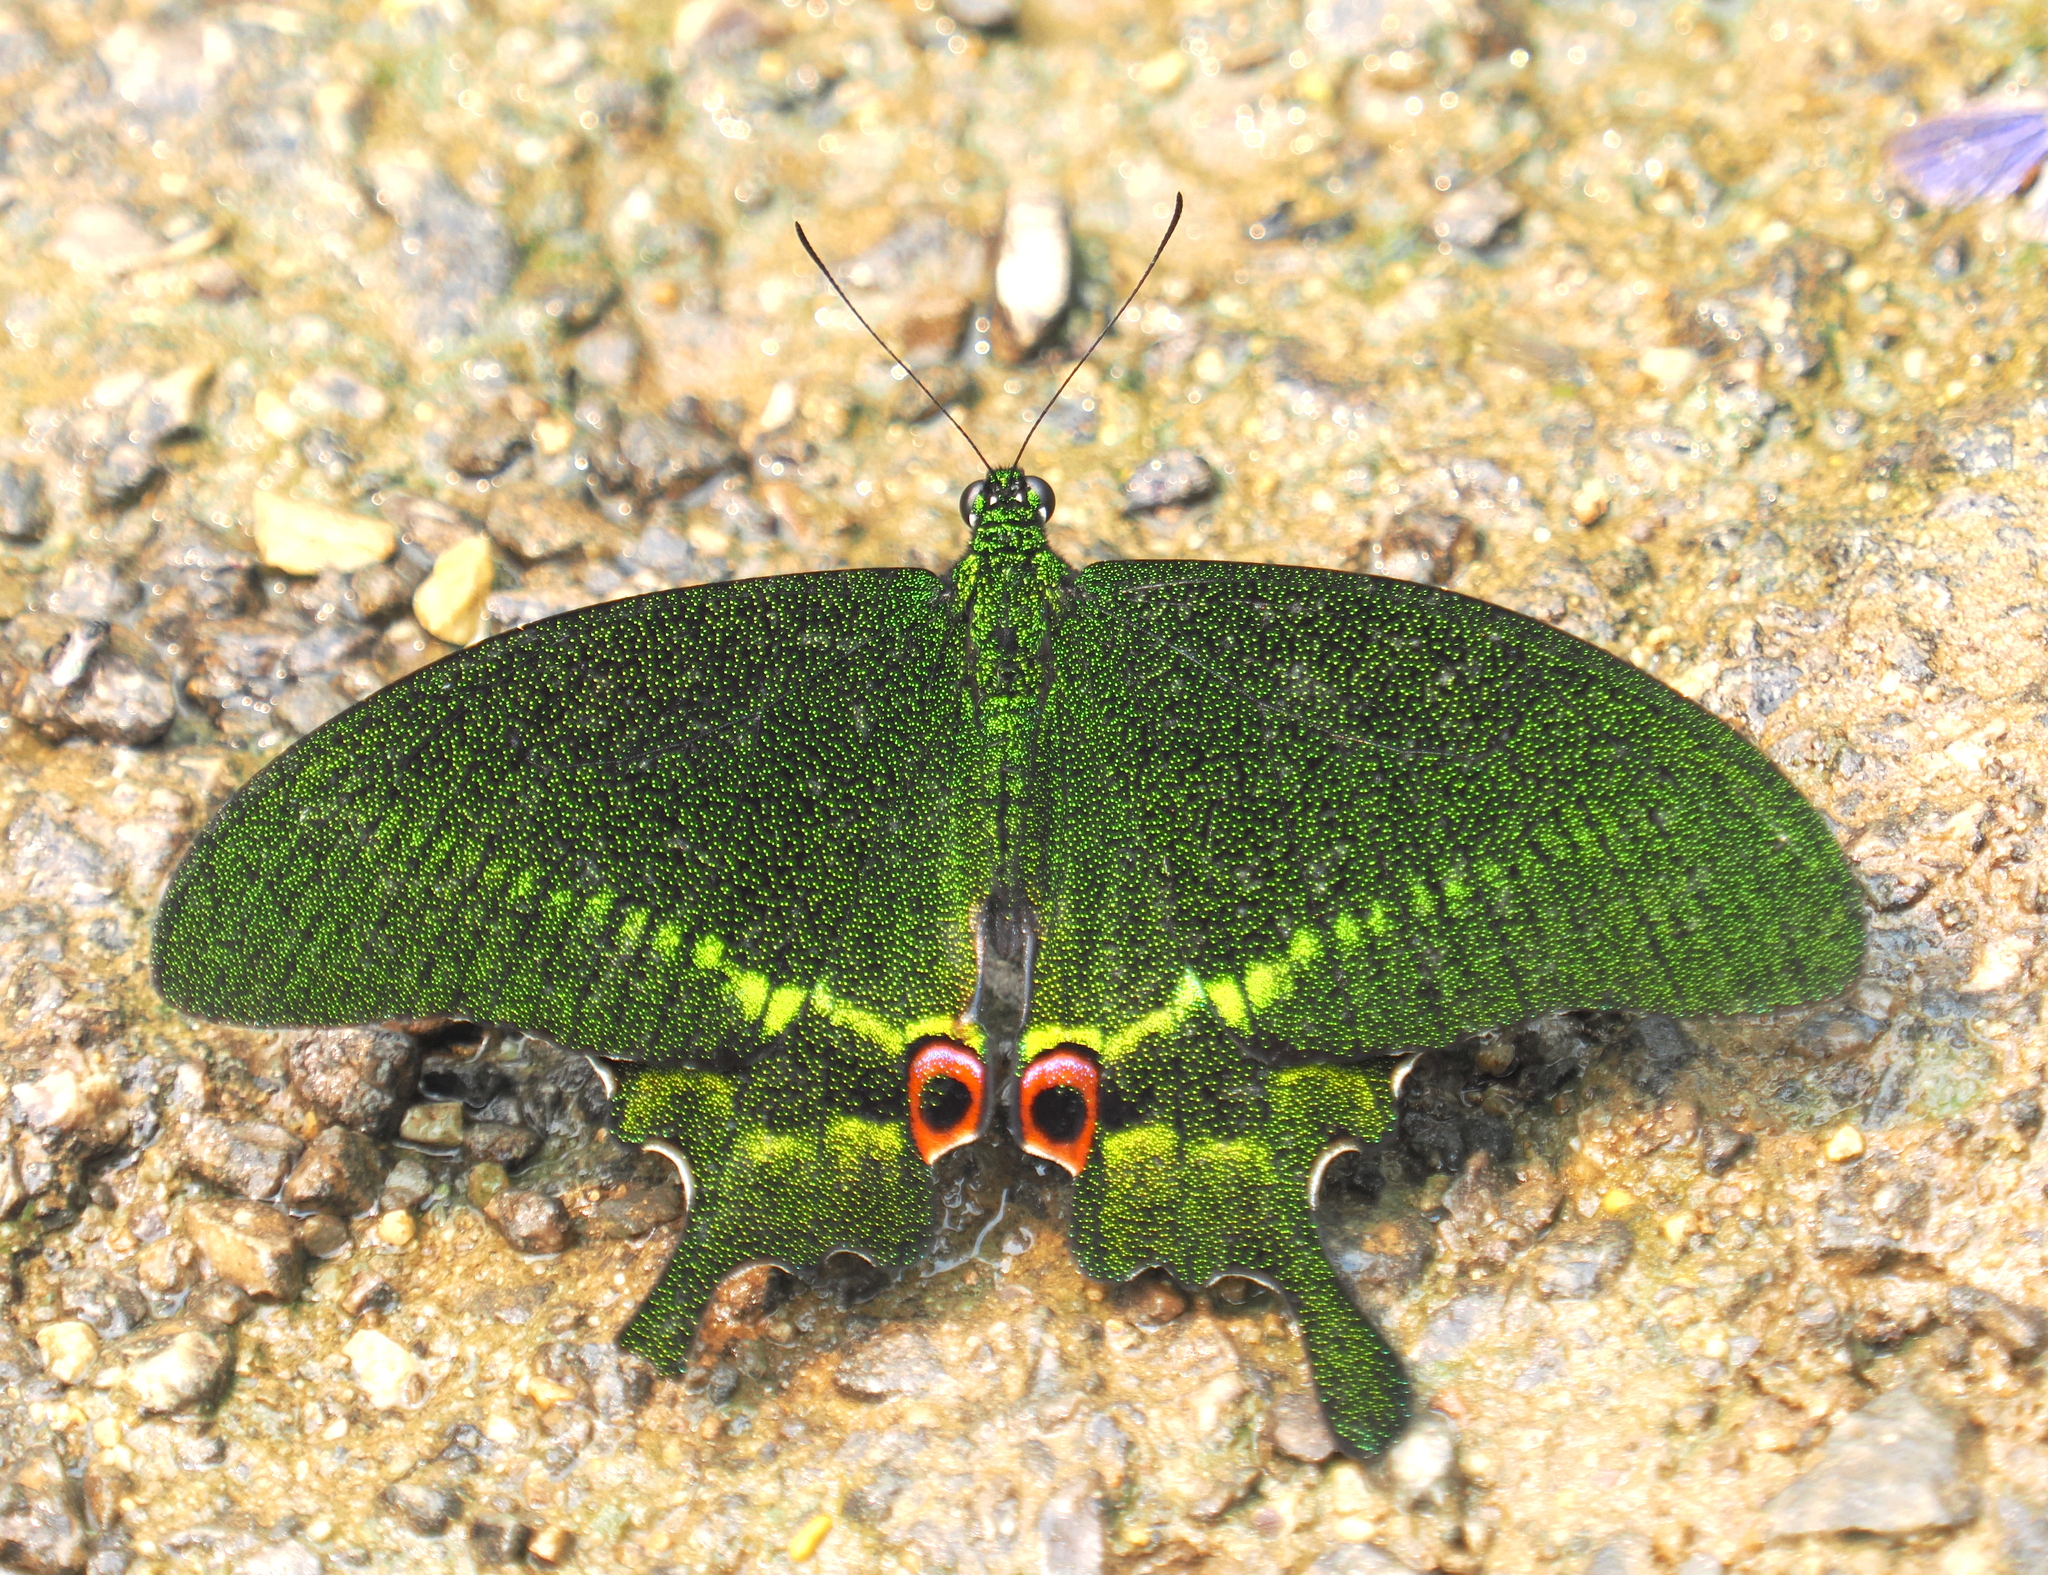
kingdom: Animalia
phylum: Arthropoda
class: Insecta
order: Lepidoptera
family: Papilionidae
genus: Papilio
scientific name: Papilio paris
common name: Paris peacock
